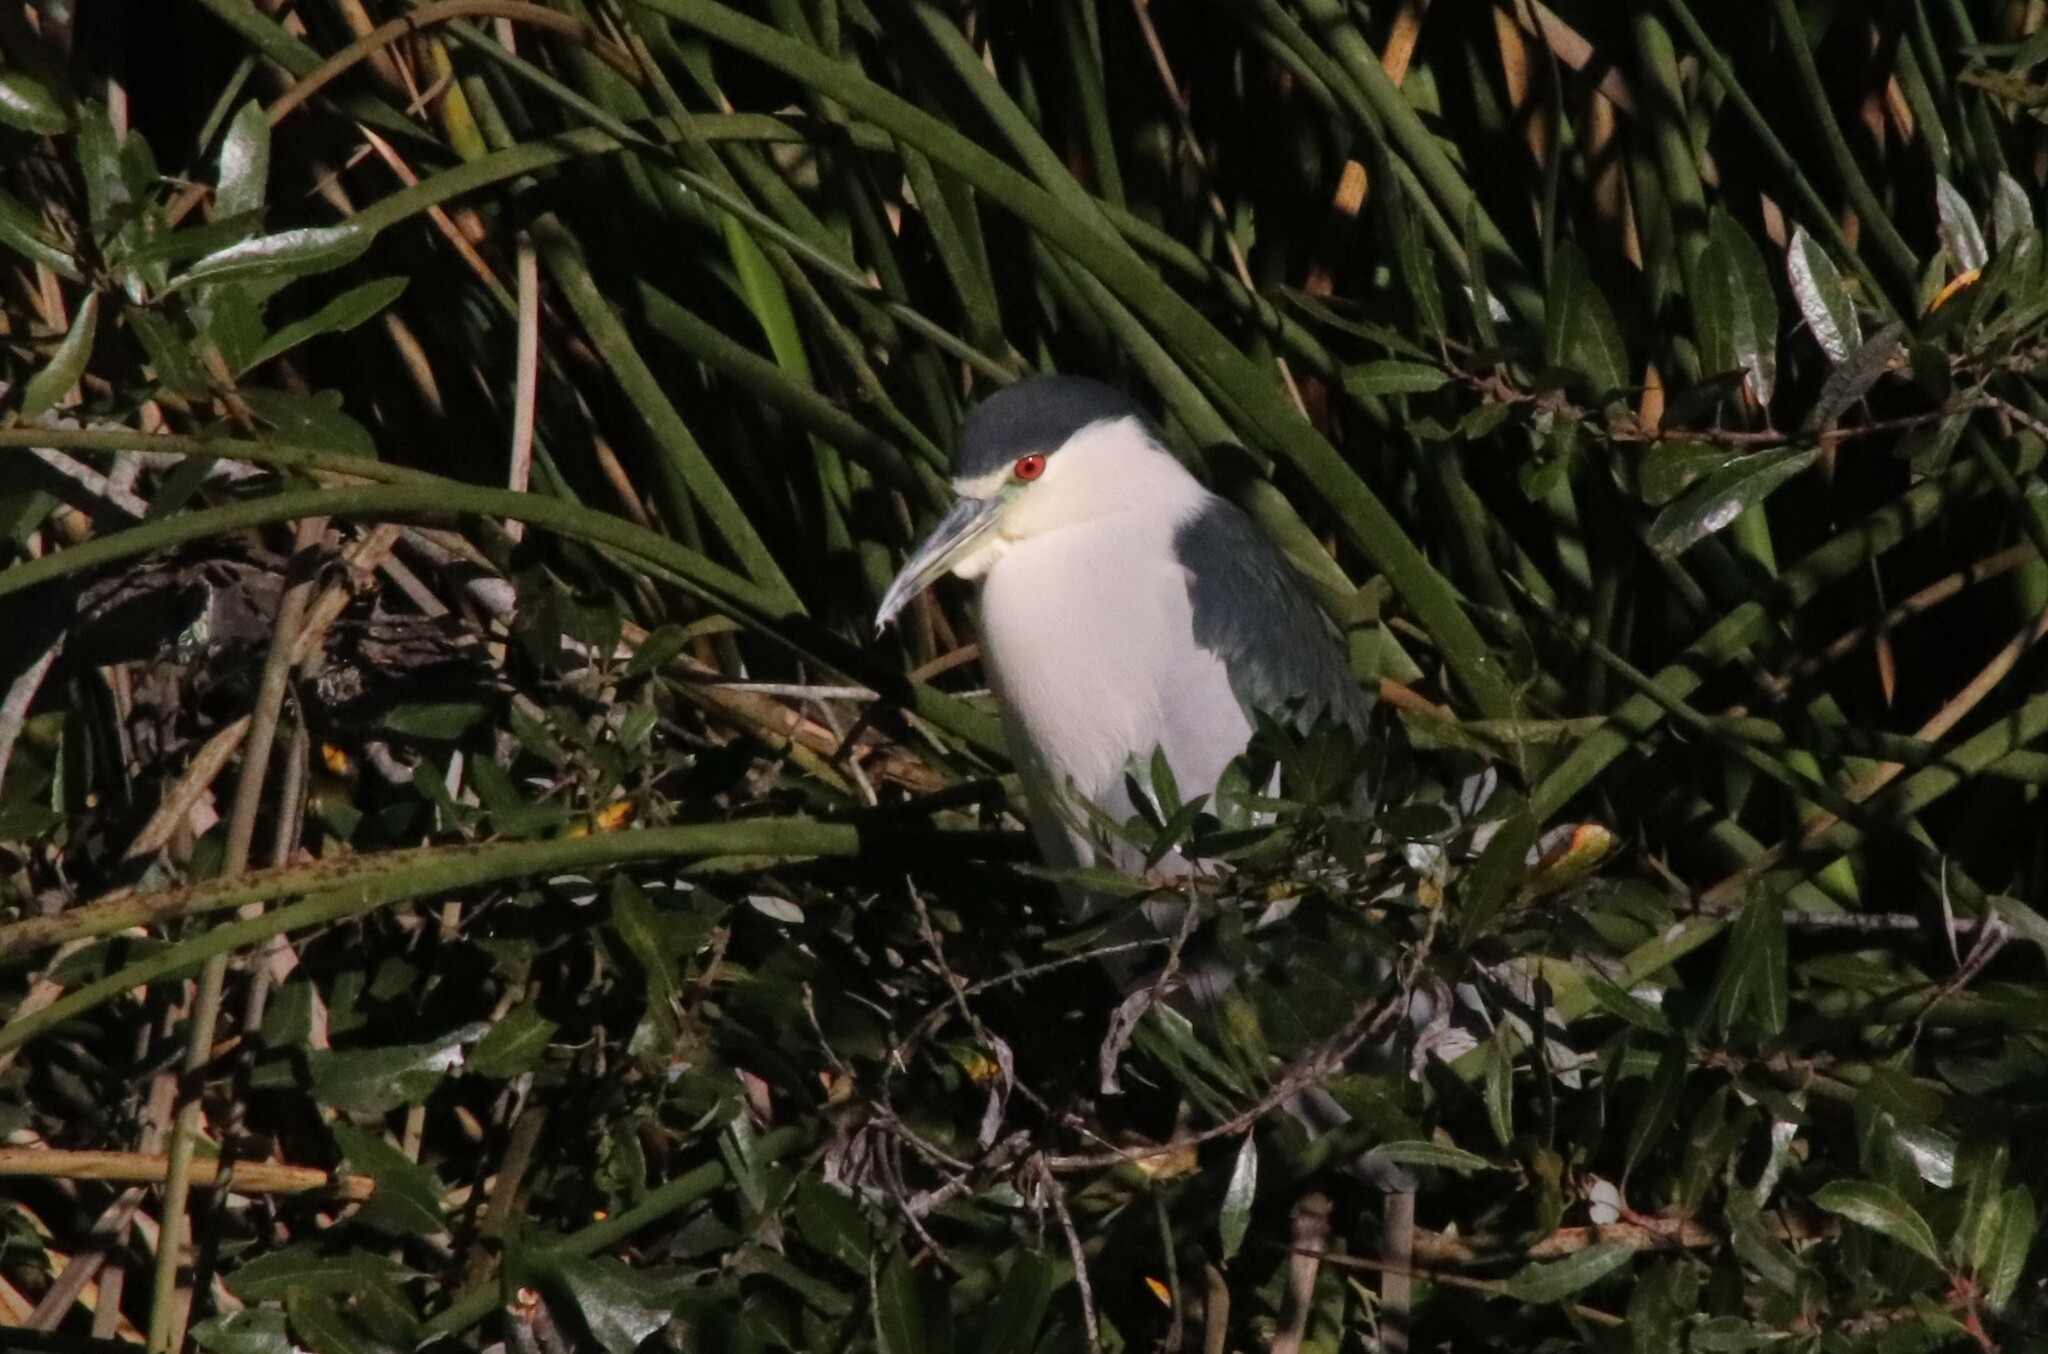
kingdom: Animalia
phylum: Chordata
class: Aves
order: Pelecaniformes
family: Ardeidae
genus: Nycticorax
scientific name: Nycticorax nycticorax
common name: Black-crowned night heron
